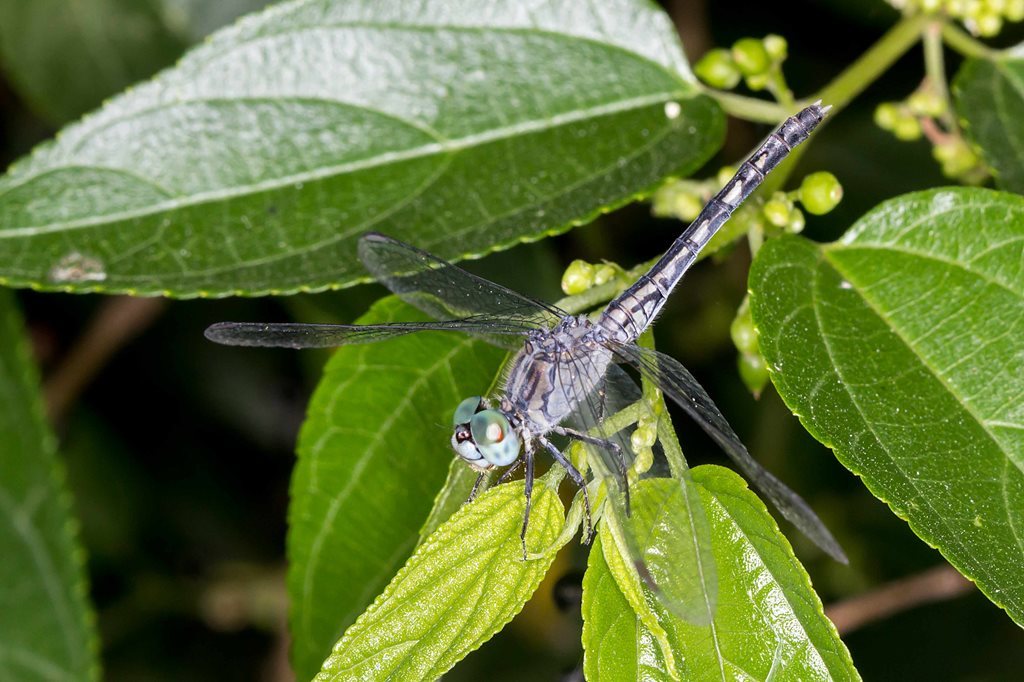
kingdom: Animalia
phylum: Arthropoda
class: Insecta
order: Odonata
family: Libellulidae
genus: Diplacodes
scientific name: Diplacodes trivialis
